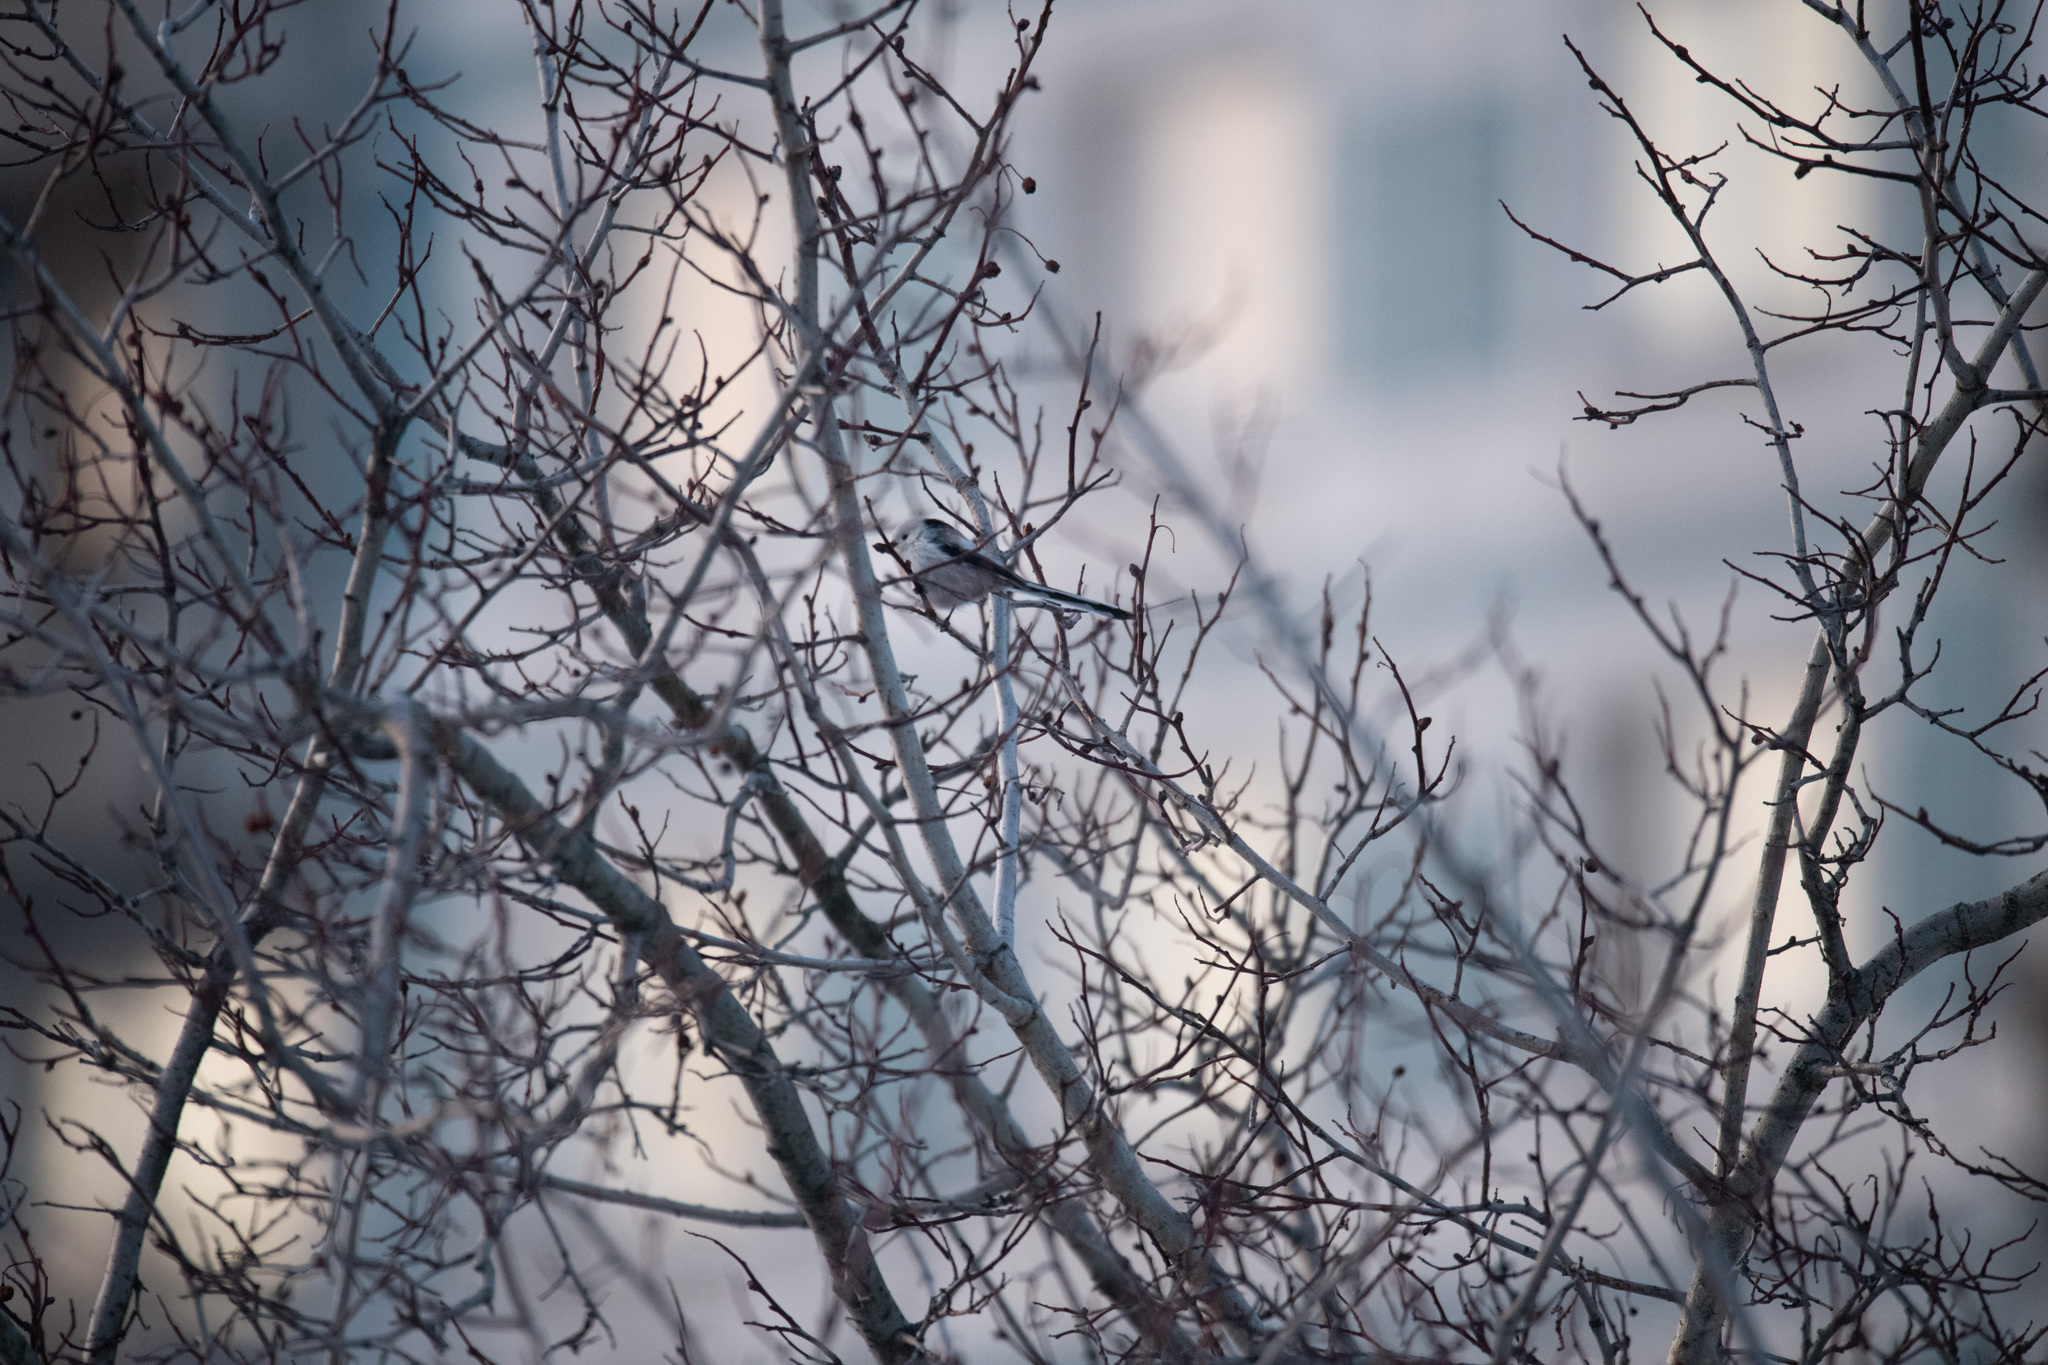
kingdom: Animalia
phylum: Chordata
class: Aves
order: Passeriformes
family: Aegithalidae
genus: Aegithalos
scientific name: Aegithalos caudatus
